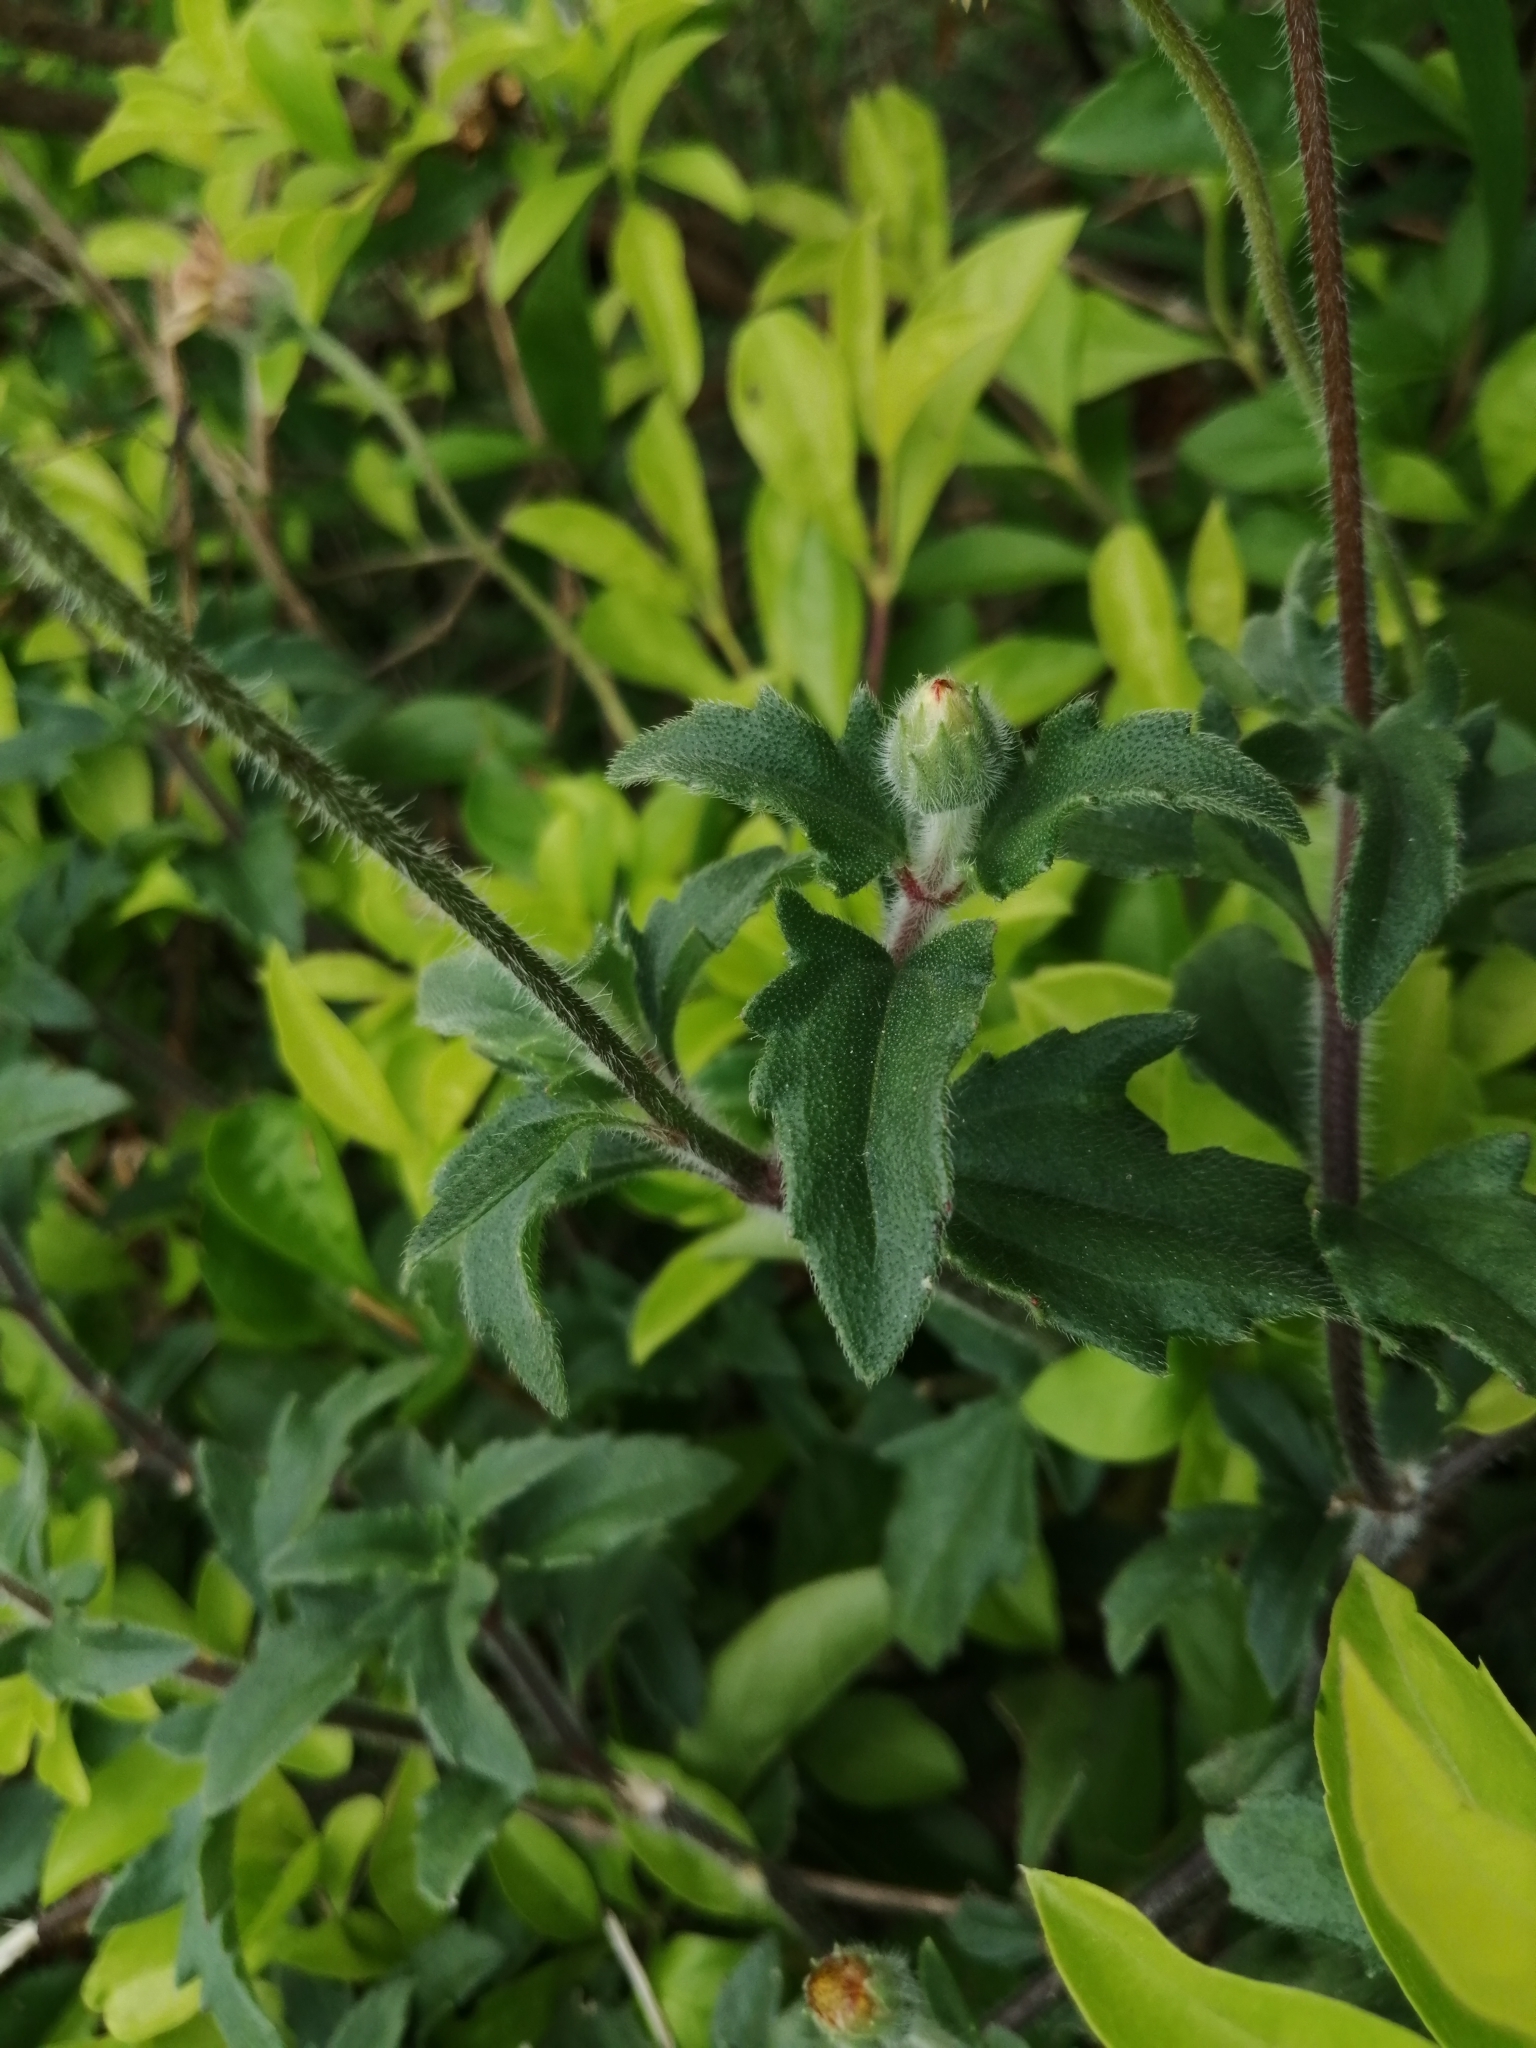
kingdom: Plantae
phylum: Tracheophyta
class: Magnoliopsida
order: Asterales
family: Asteraceae
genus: Tridax
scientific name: Tridax procumbens
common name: Coatbuttons
